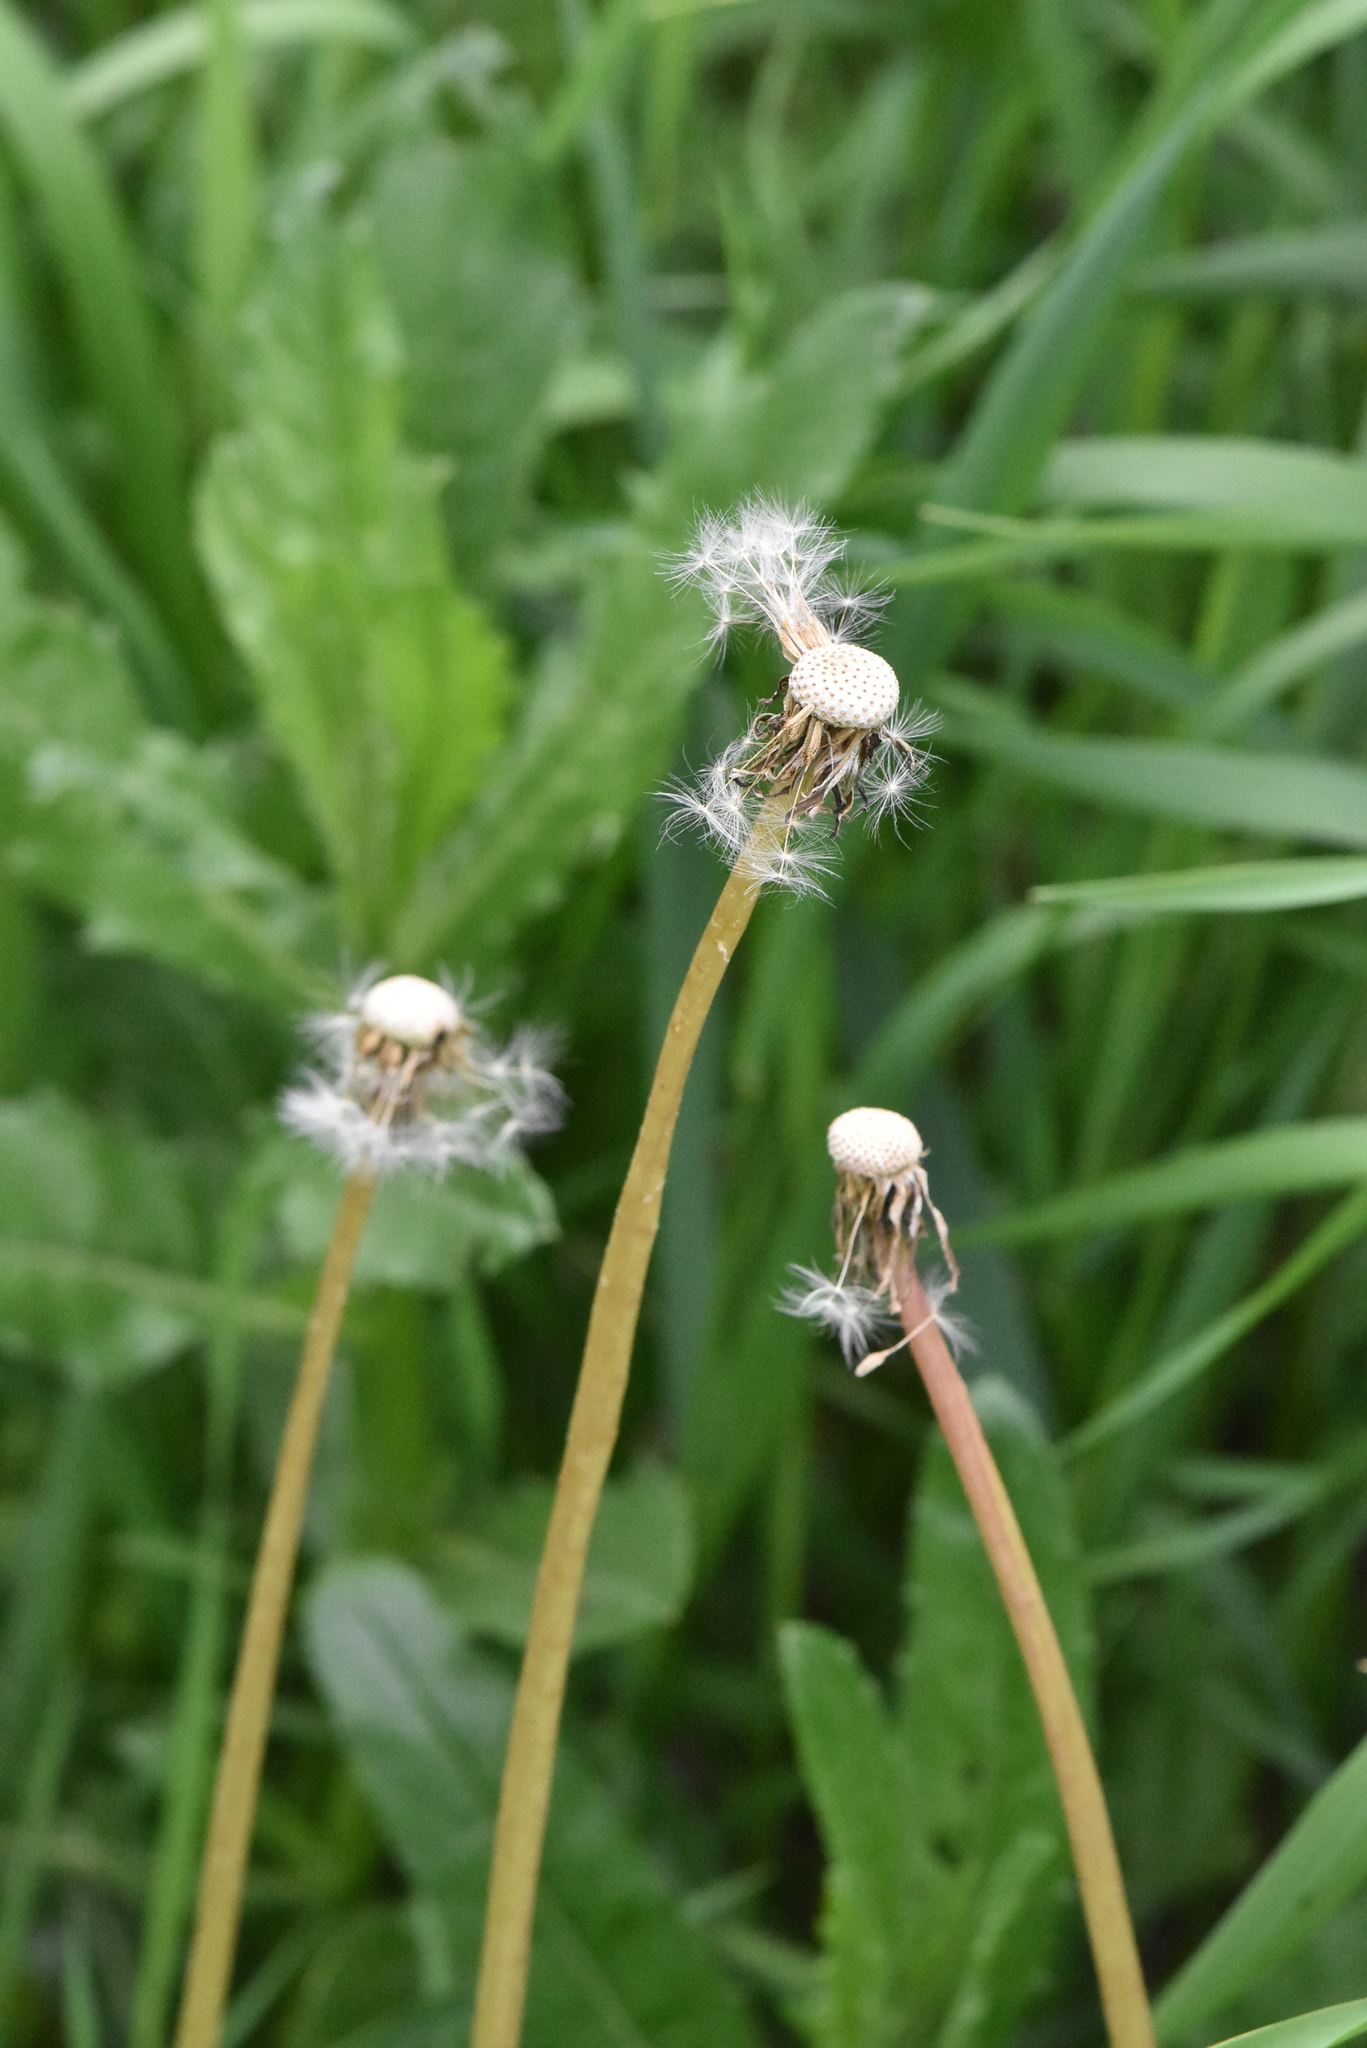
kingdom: Plantae
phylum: Tracheophyta
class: Magnoliopsida
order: Asterales
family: Asteraceae
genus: Taraxacum
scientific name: Taraxacum officinale
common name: Common dandelion
